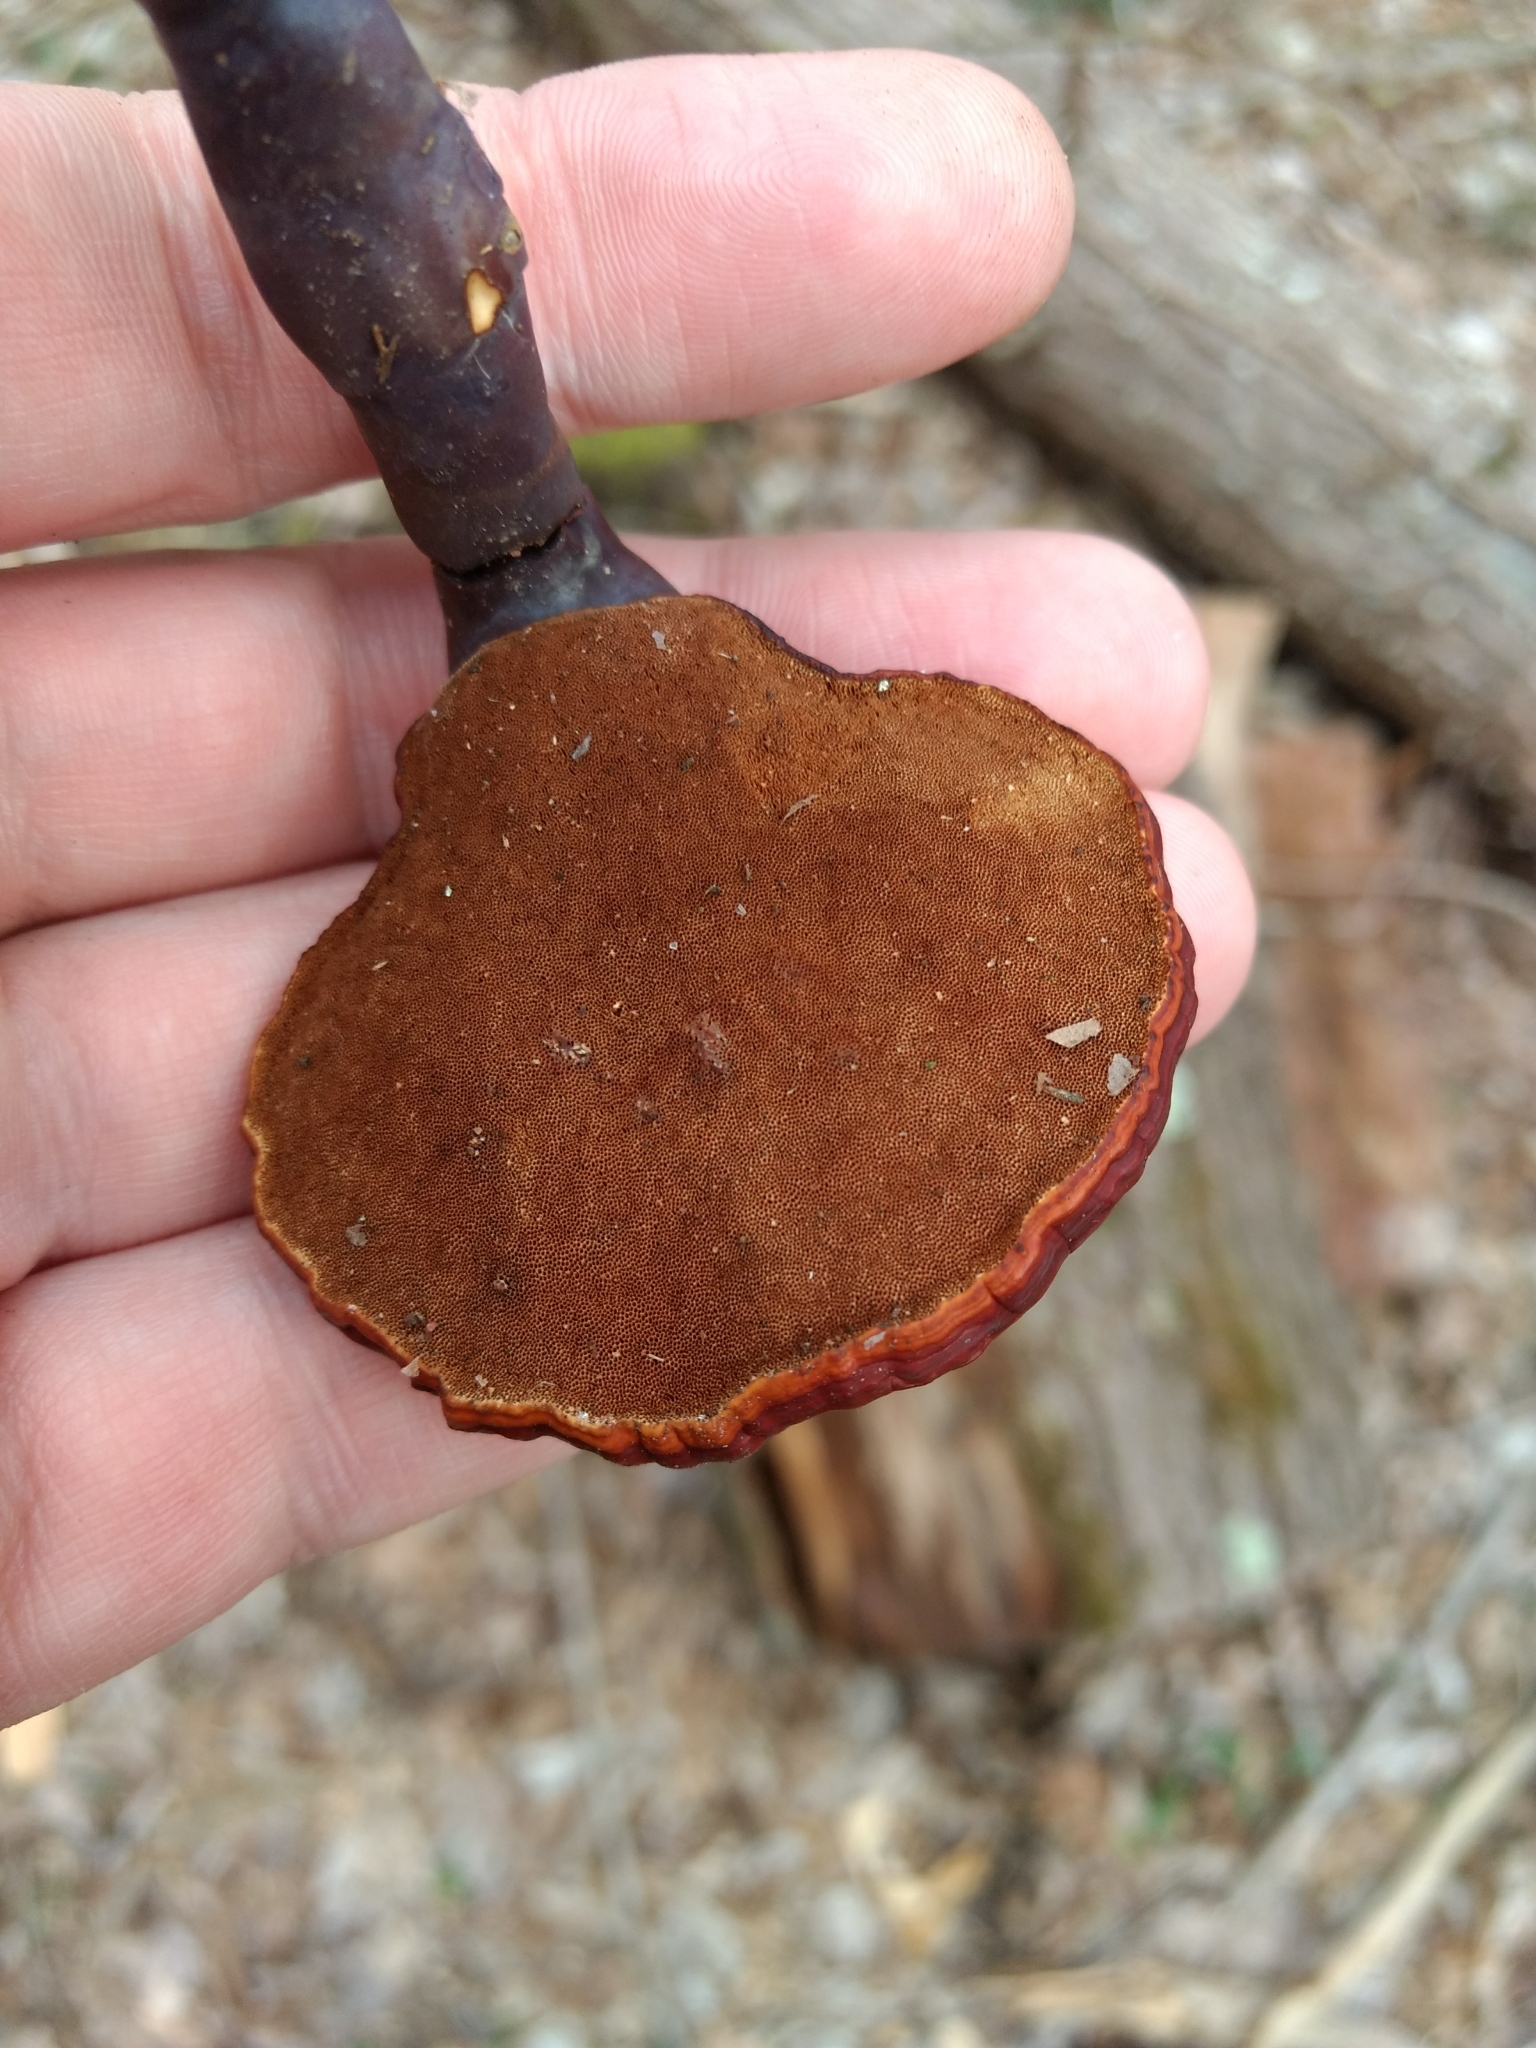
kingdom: Fungi
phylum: Basidiomycota
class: Agaricomycetes
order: Polyporales
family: Polyporaceae
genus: Ganoderma
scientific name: Ganoderma tsugae
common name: Hemlock varnish shelf
